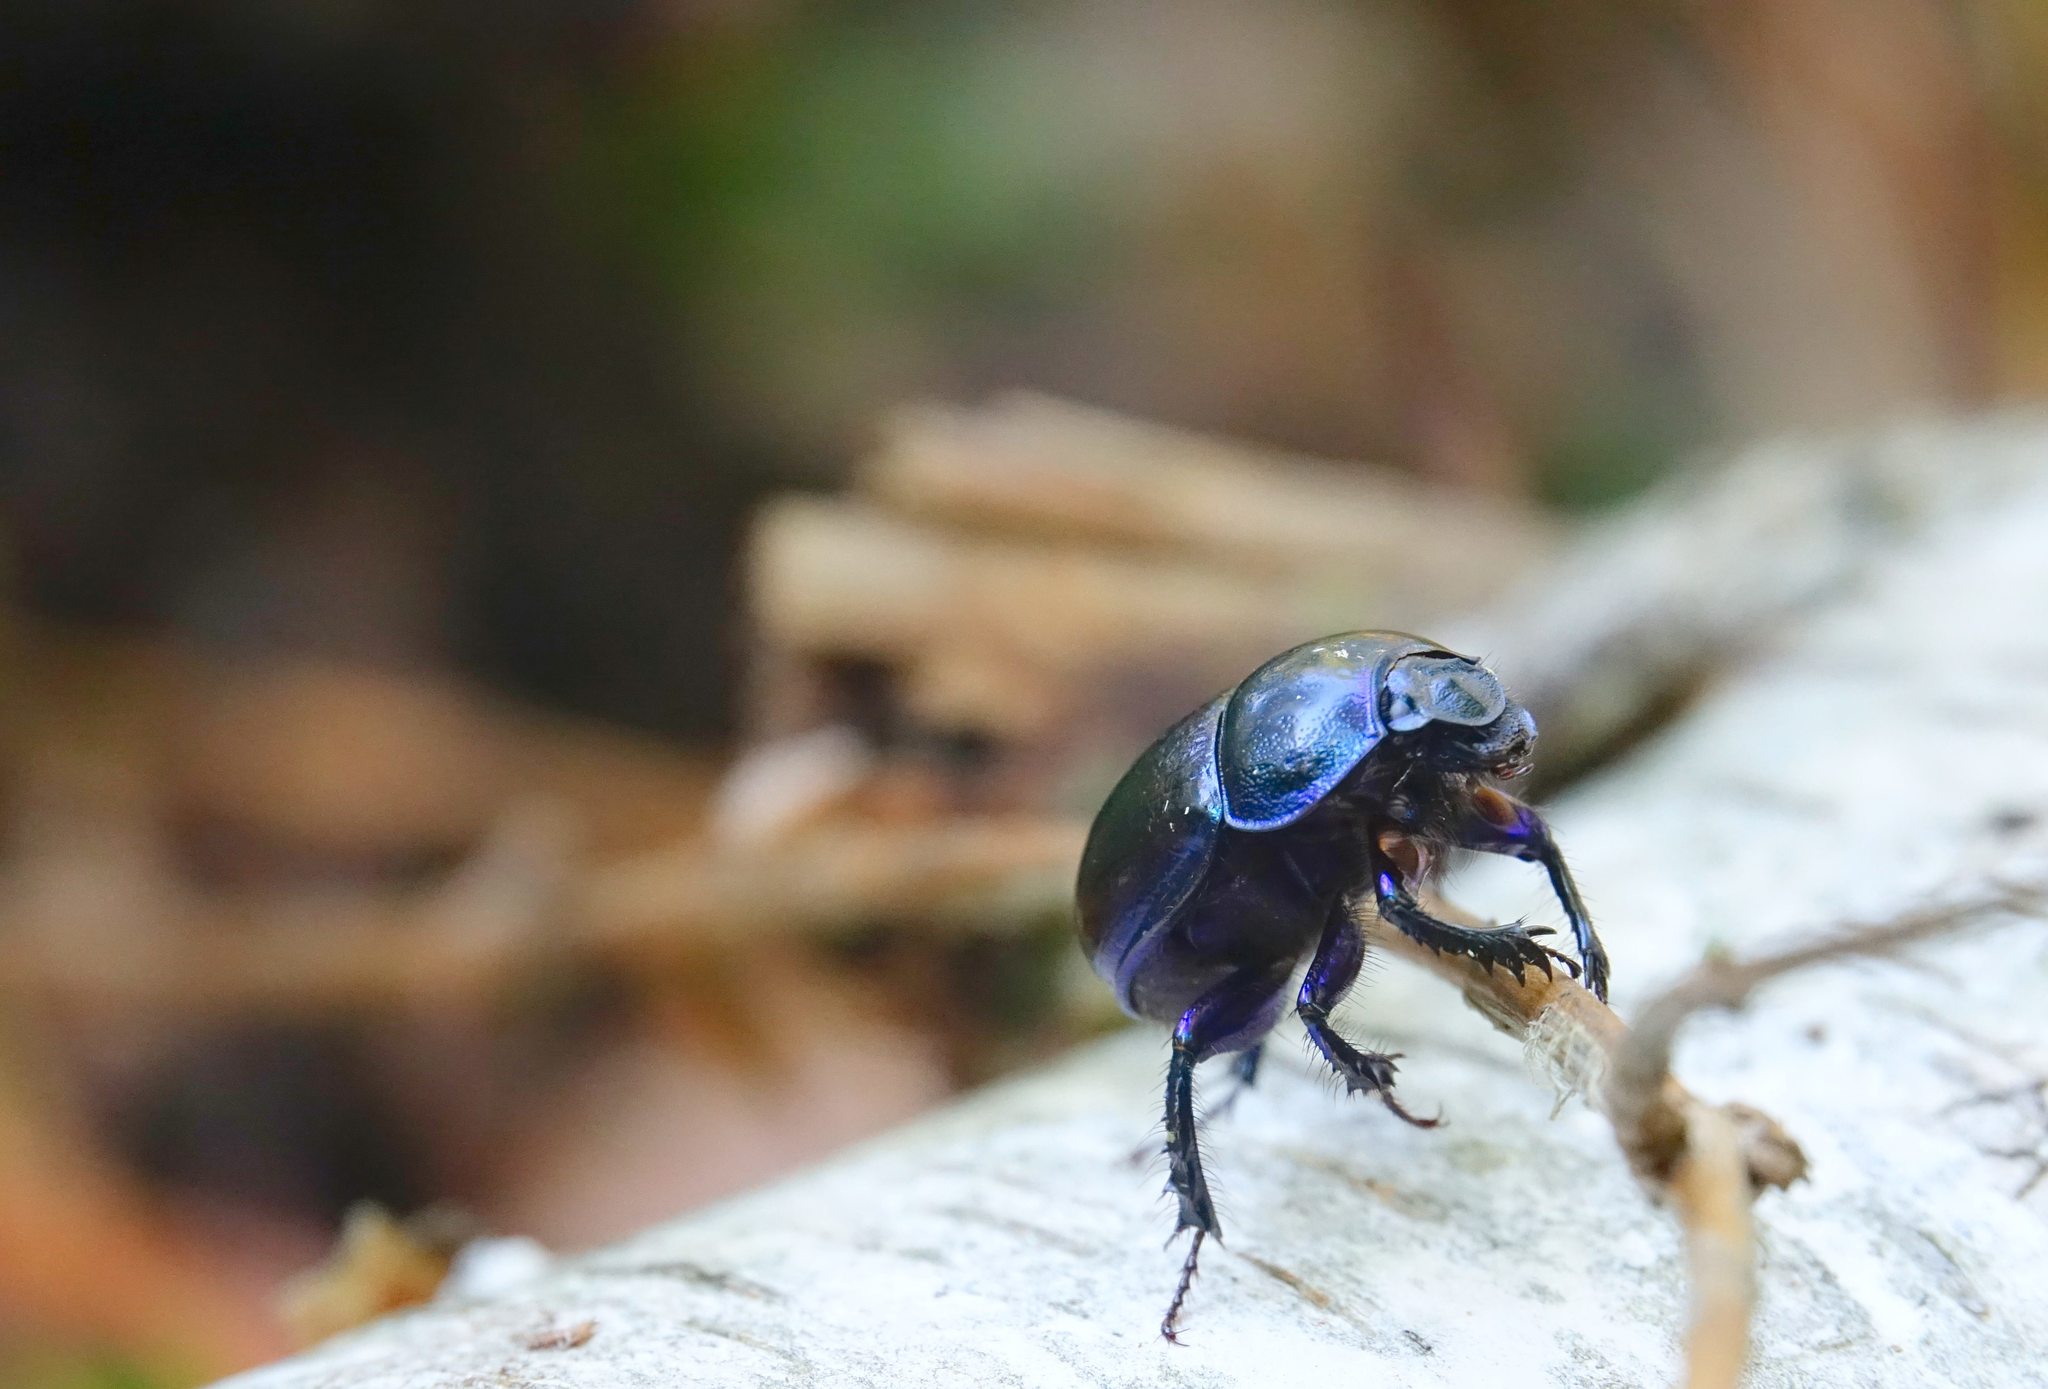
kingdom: Animalia
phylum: Arthropoda
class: Insecta
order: Coleoptera
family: Geotrupidae
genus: Anoplotrupes
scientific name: Anoplotrupes stercorosus
